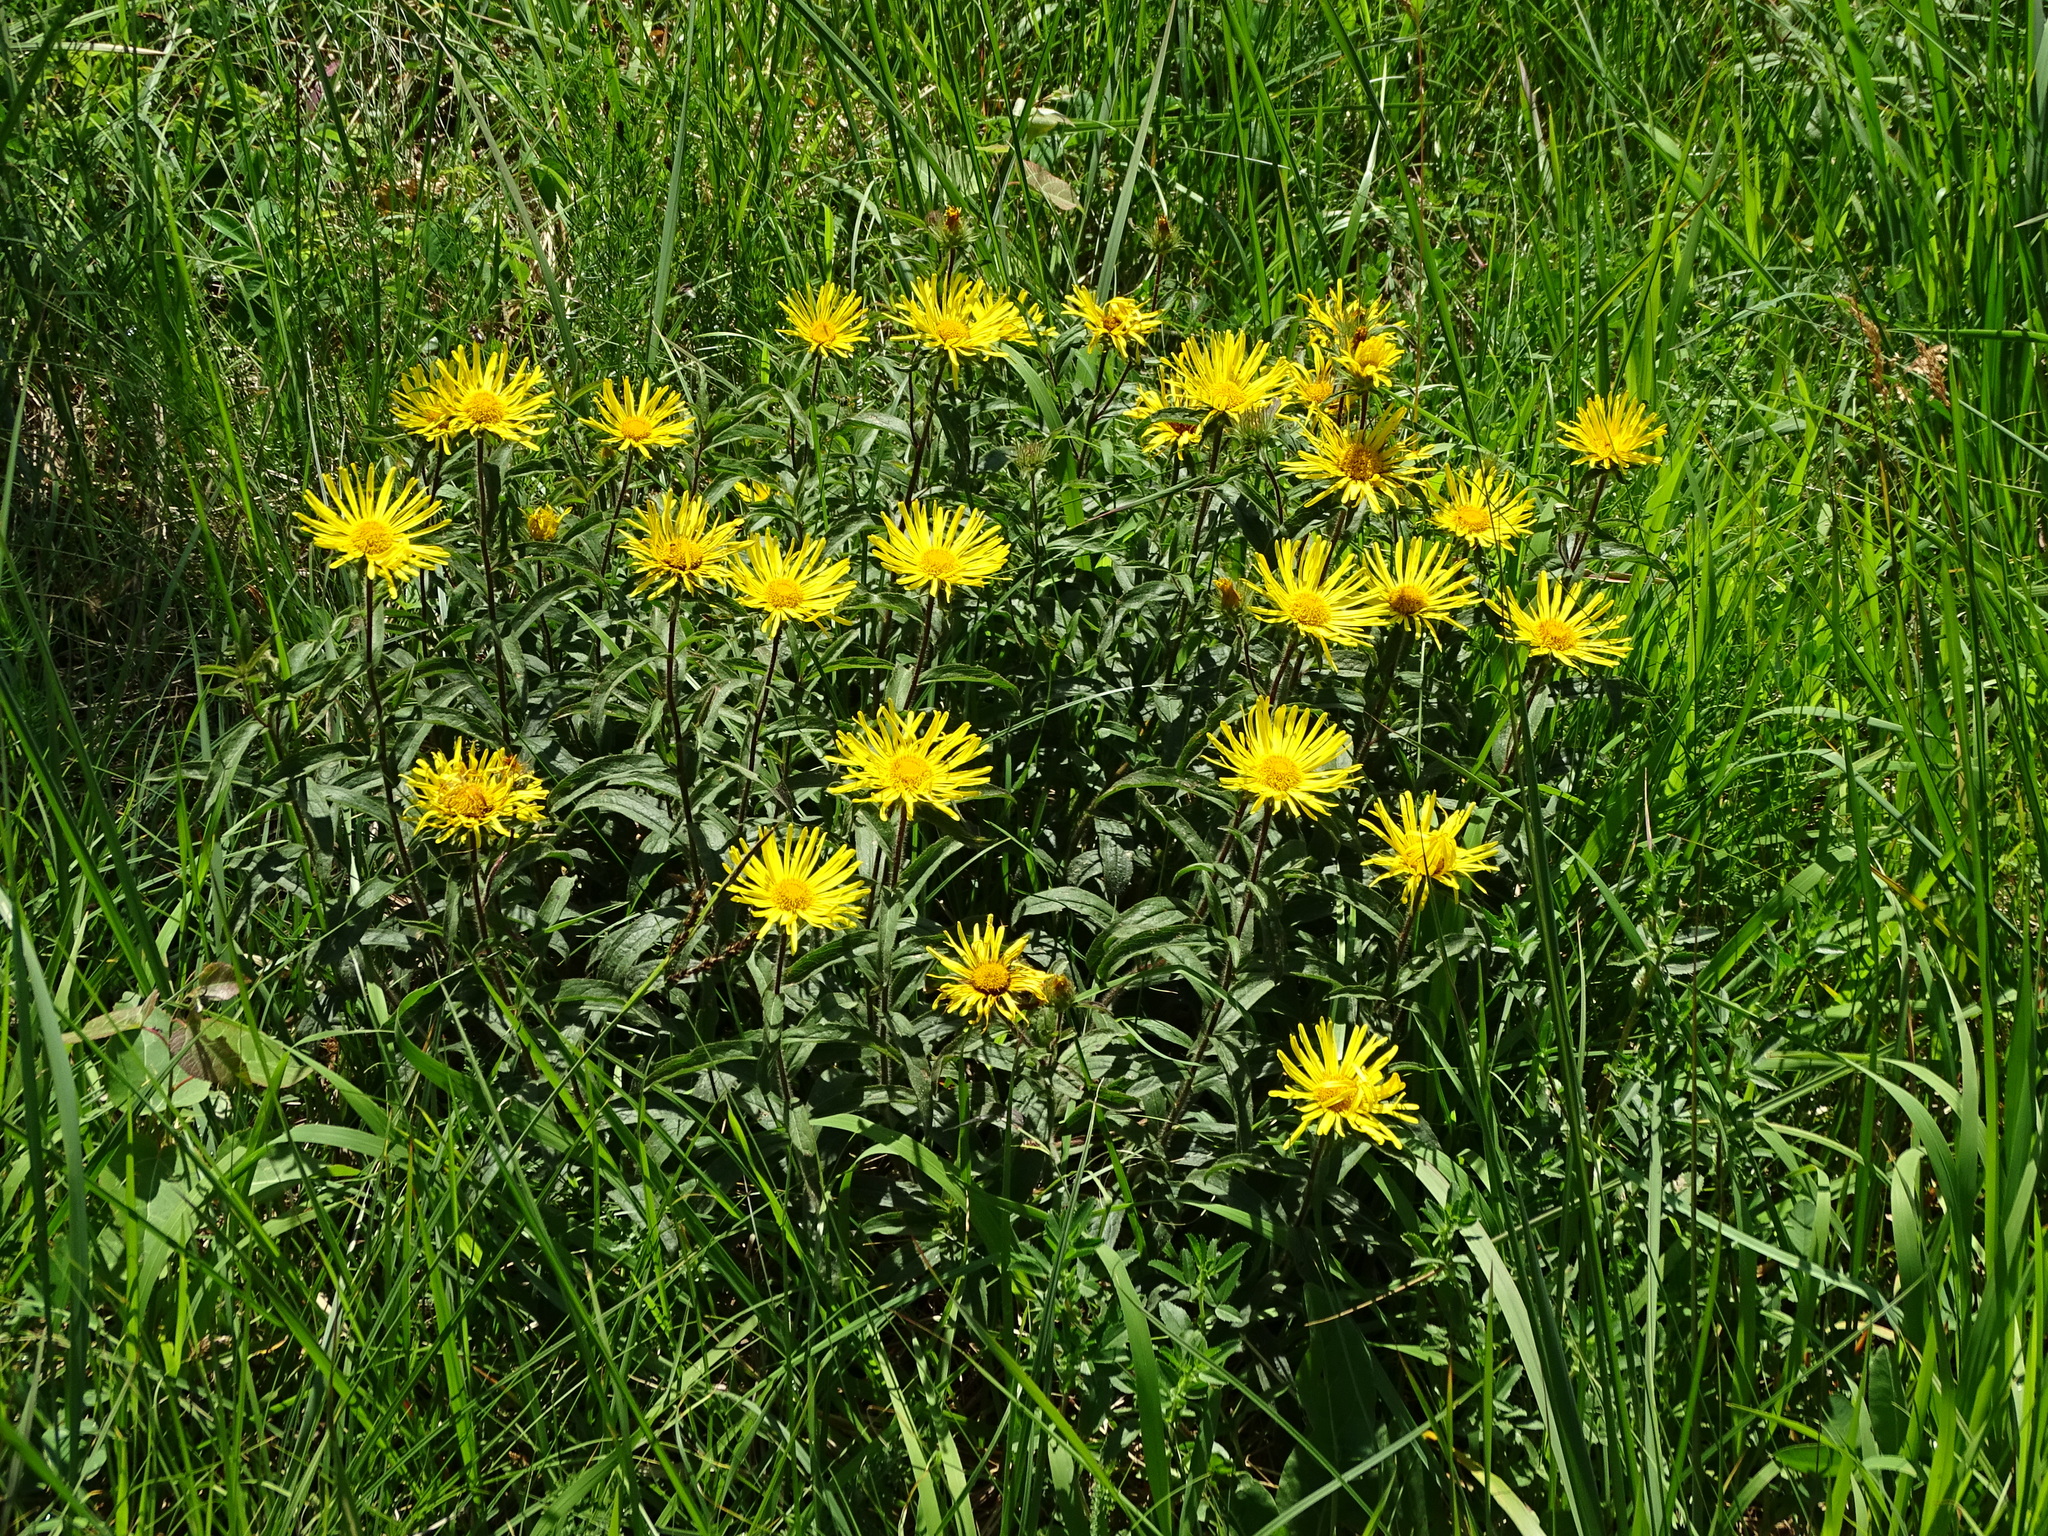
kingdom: Plantae
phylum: Tracheophyta
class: Magnoliopsida
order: Asterales
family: Asteraceae
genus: Pentanema
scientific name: Pentanema hirtum
